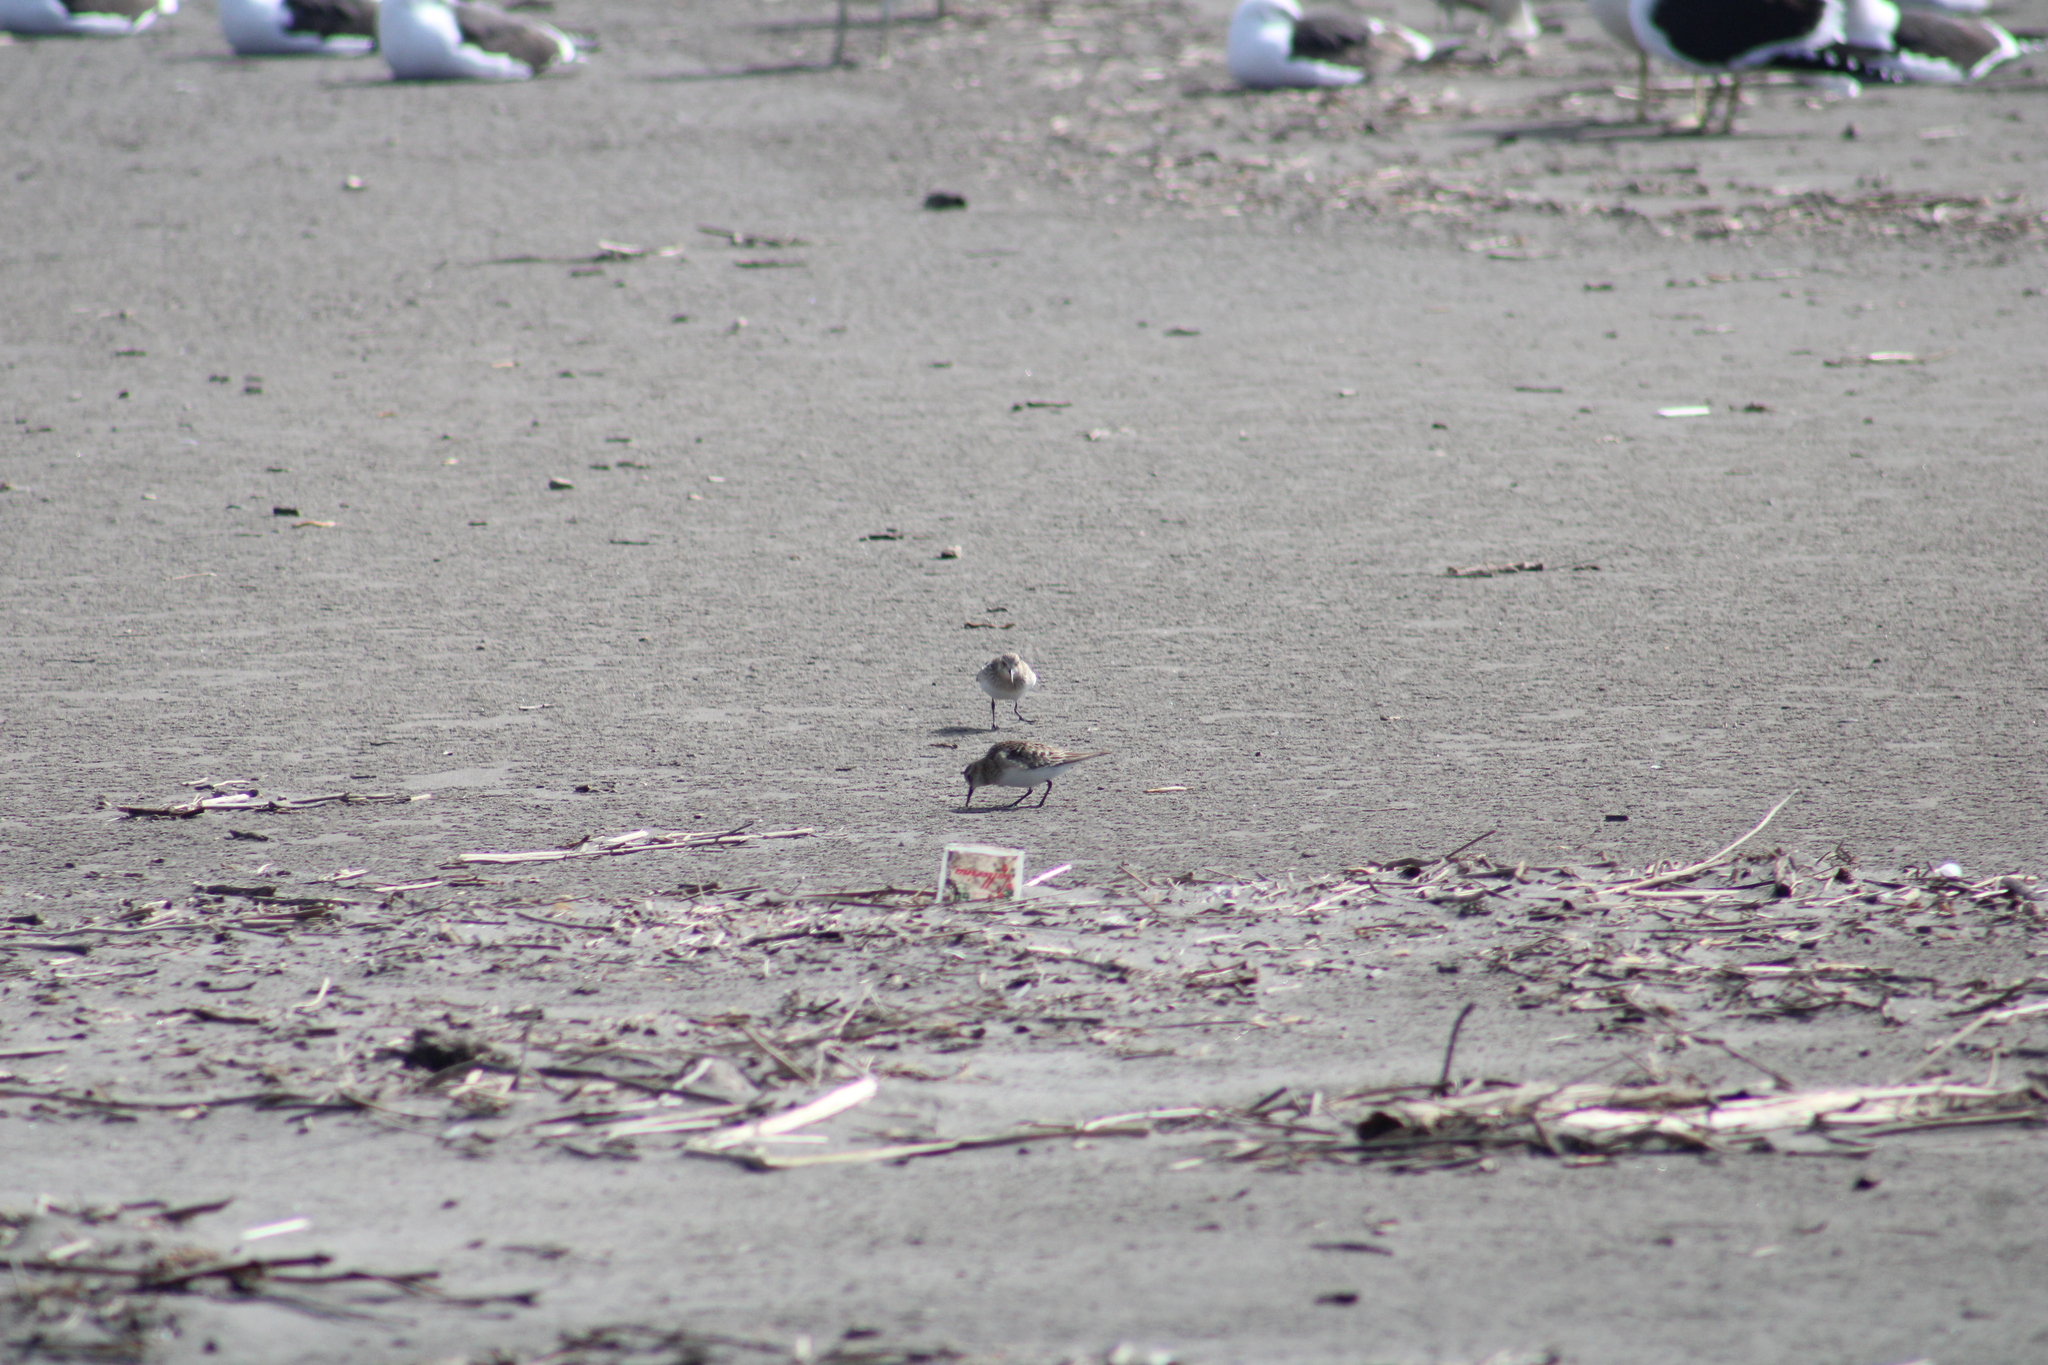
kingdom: Animalia
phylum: Chordata
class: Aves
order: Charadriiformes
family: Scolopacidae
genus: Calidris
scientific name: Calidris bairdii
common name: Baird's sandpiper
